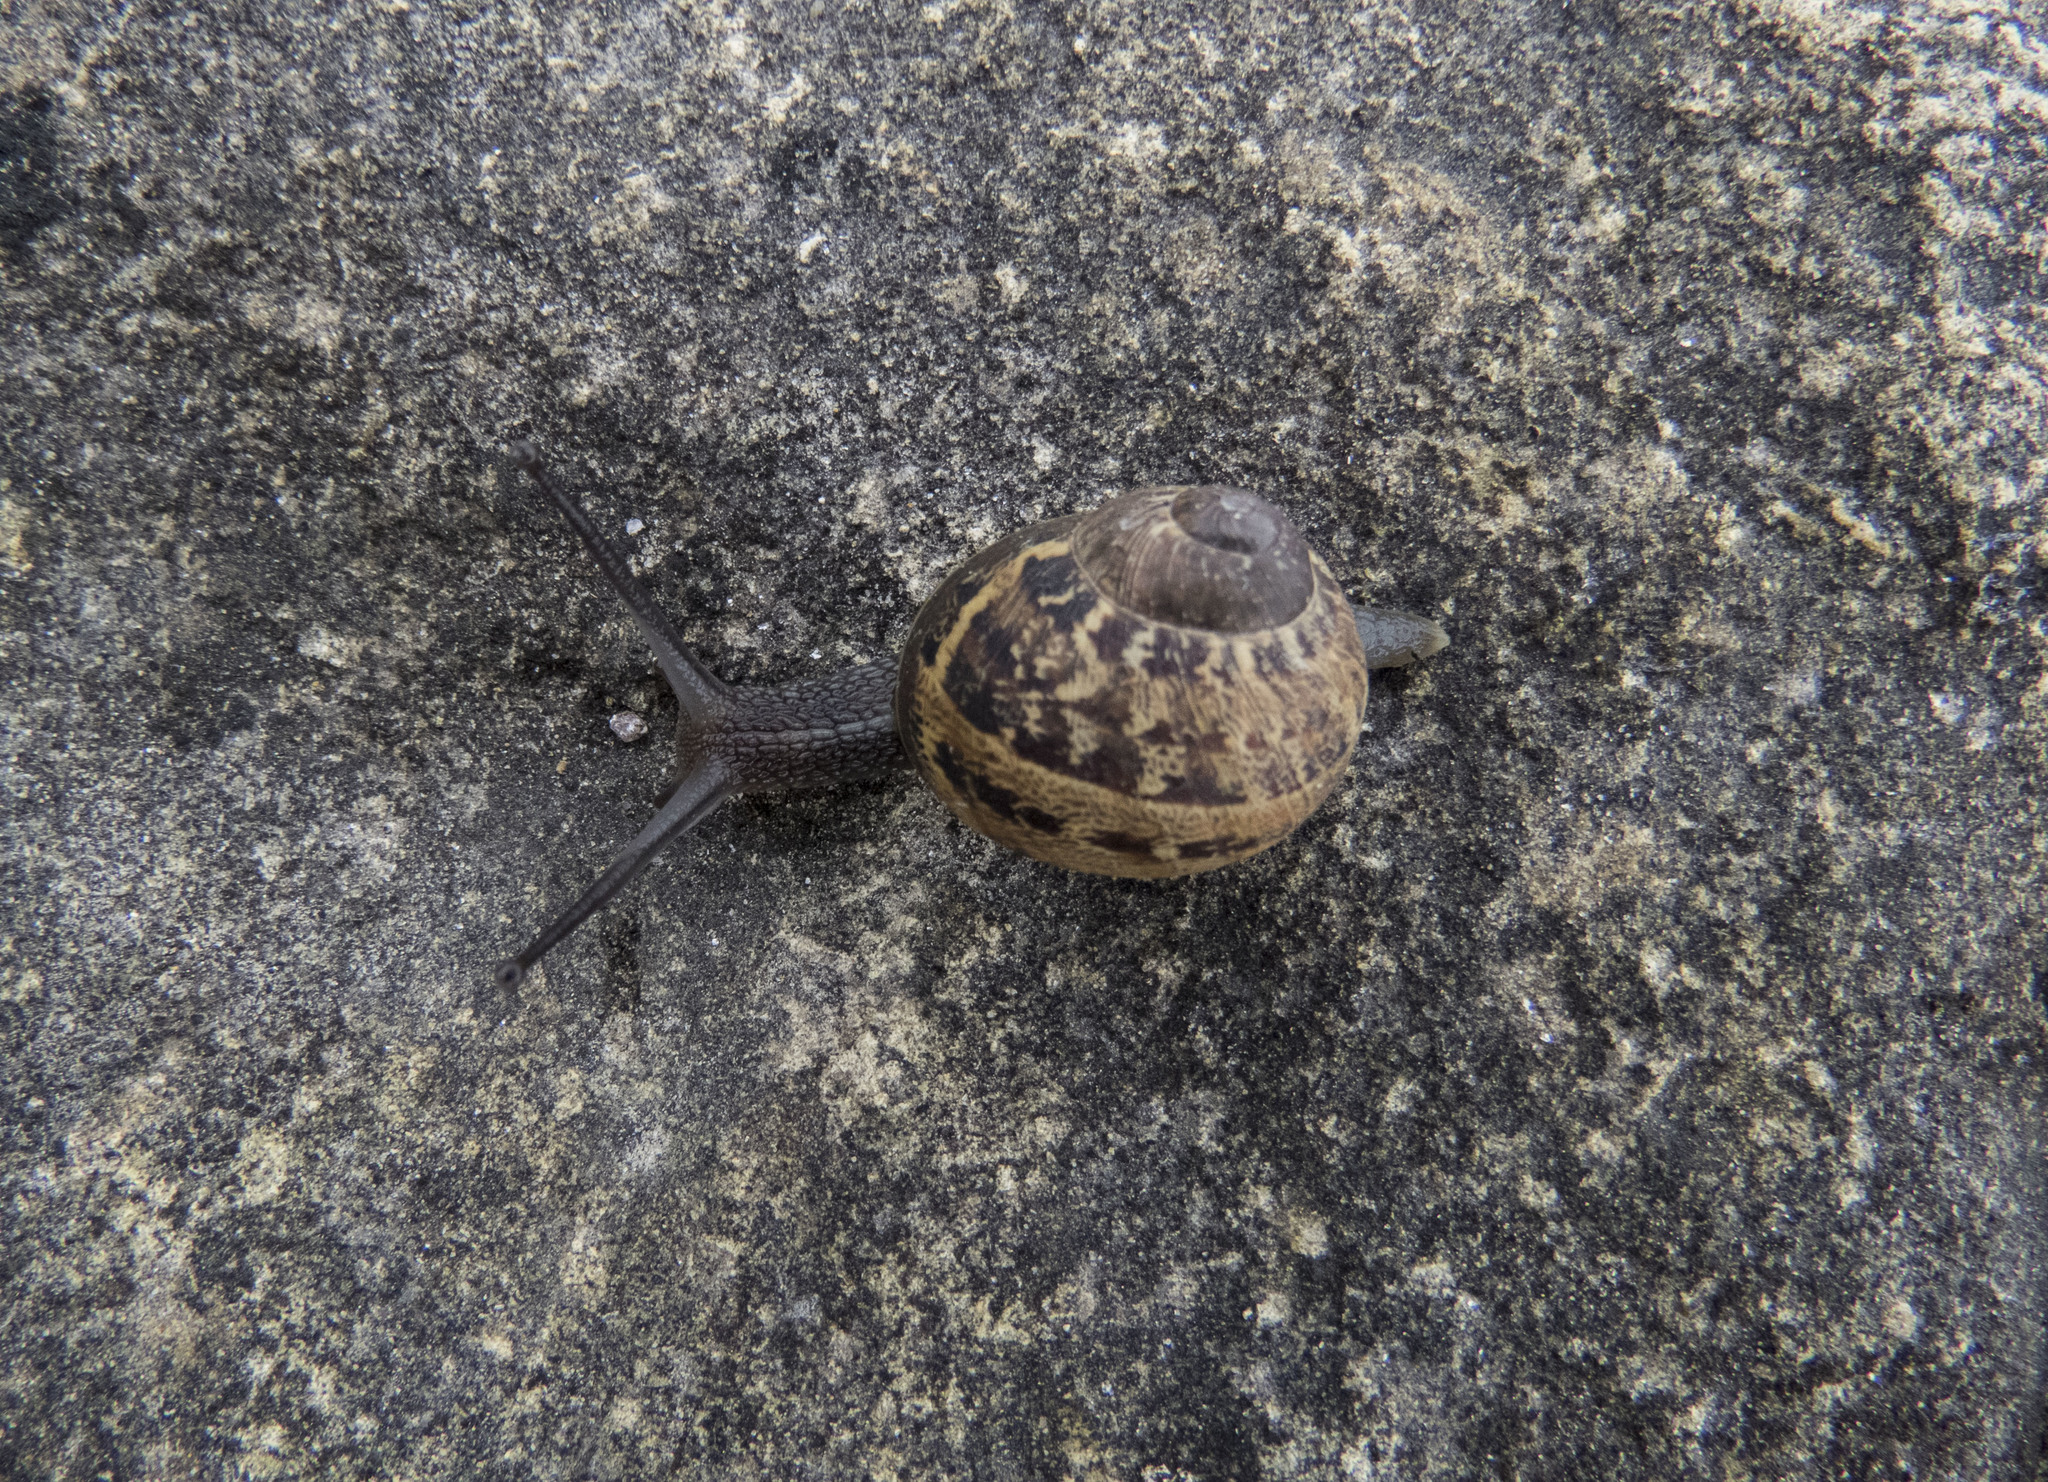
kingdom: Animalia
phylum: Mollusca
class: Gastropoda
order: Stylommatophora
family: Helicidae
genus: Cornu
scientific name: Cornu aspersum
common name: Brown garden snail
